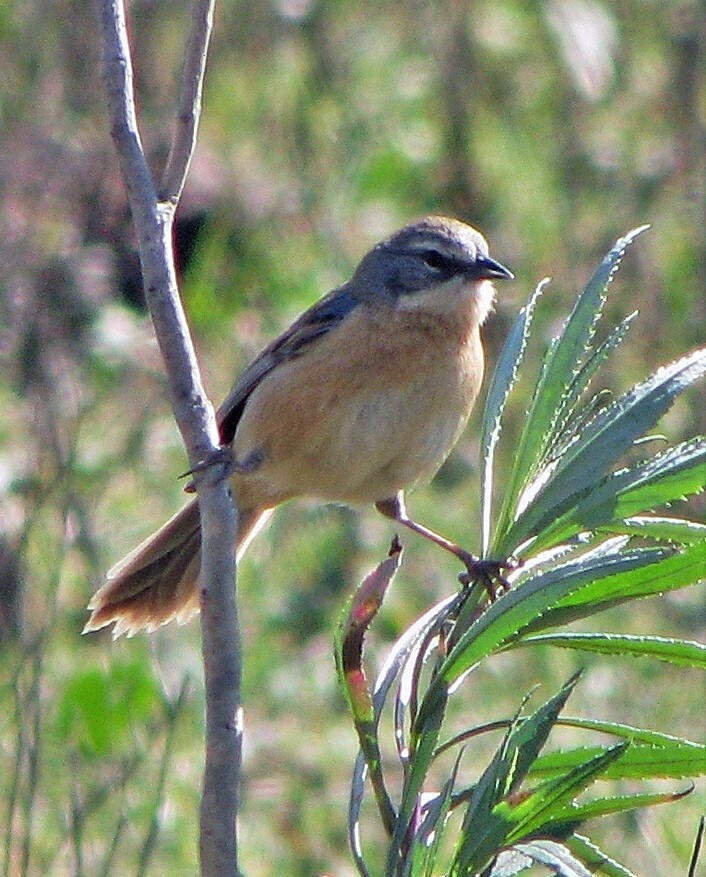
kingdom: Animalia
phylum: Chordata
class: Aves
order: Passeriformes
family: Thraupidae
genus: Donacospiza
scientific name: Donacospiza albifrons
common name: Long-tailed reed finch
